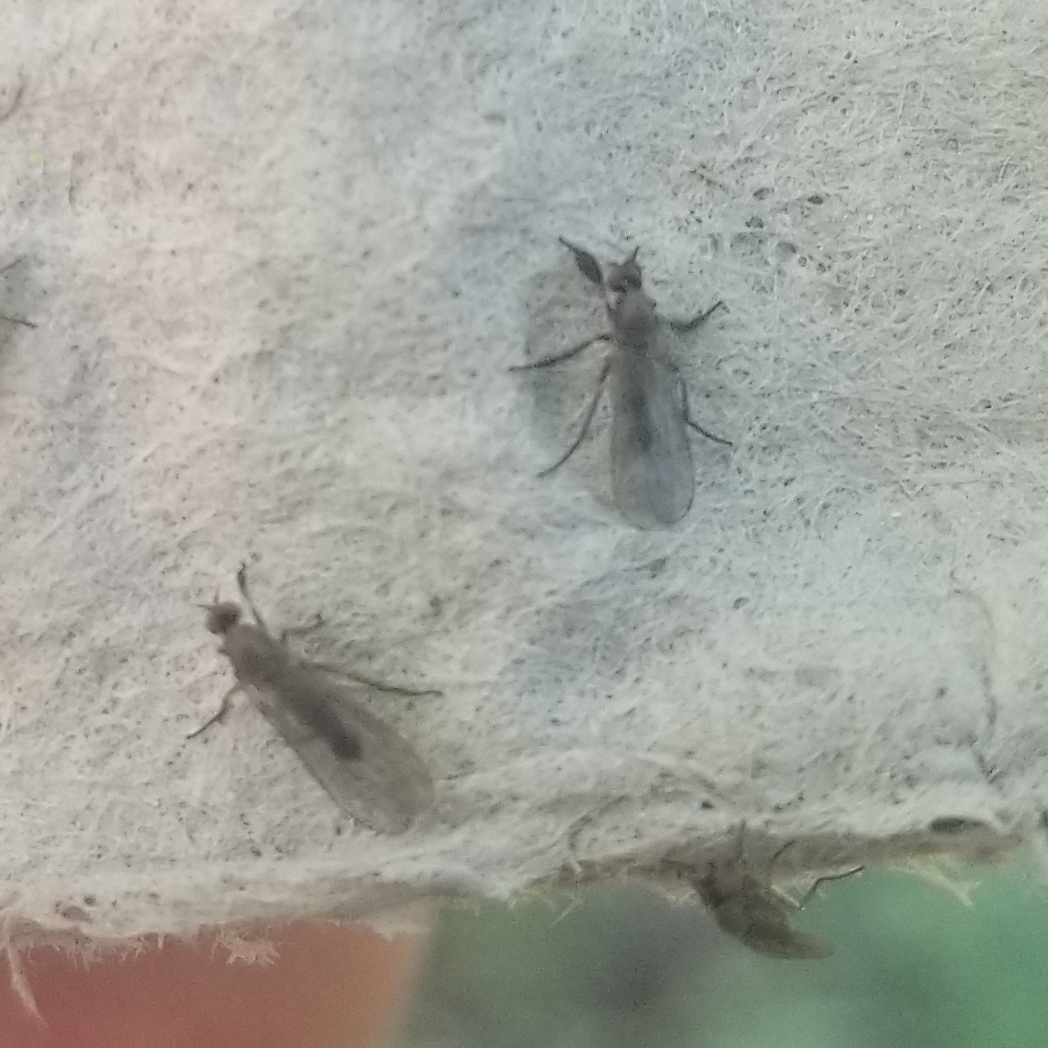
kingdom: Animalia
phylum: Arthropoda
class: Insecta
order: Diptera
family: Empididae
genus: Hilara
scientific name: Hilara
